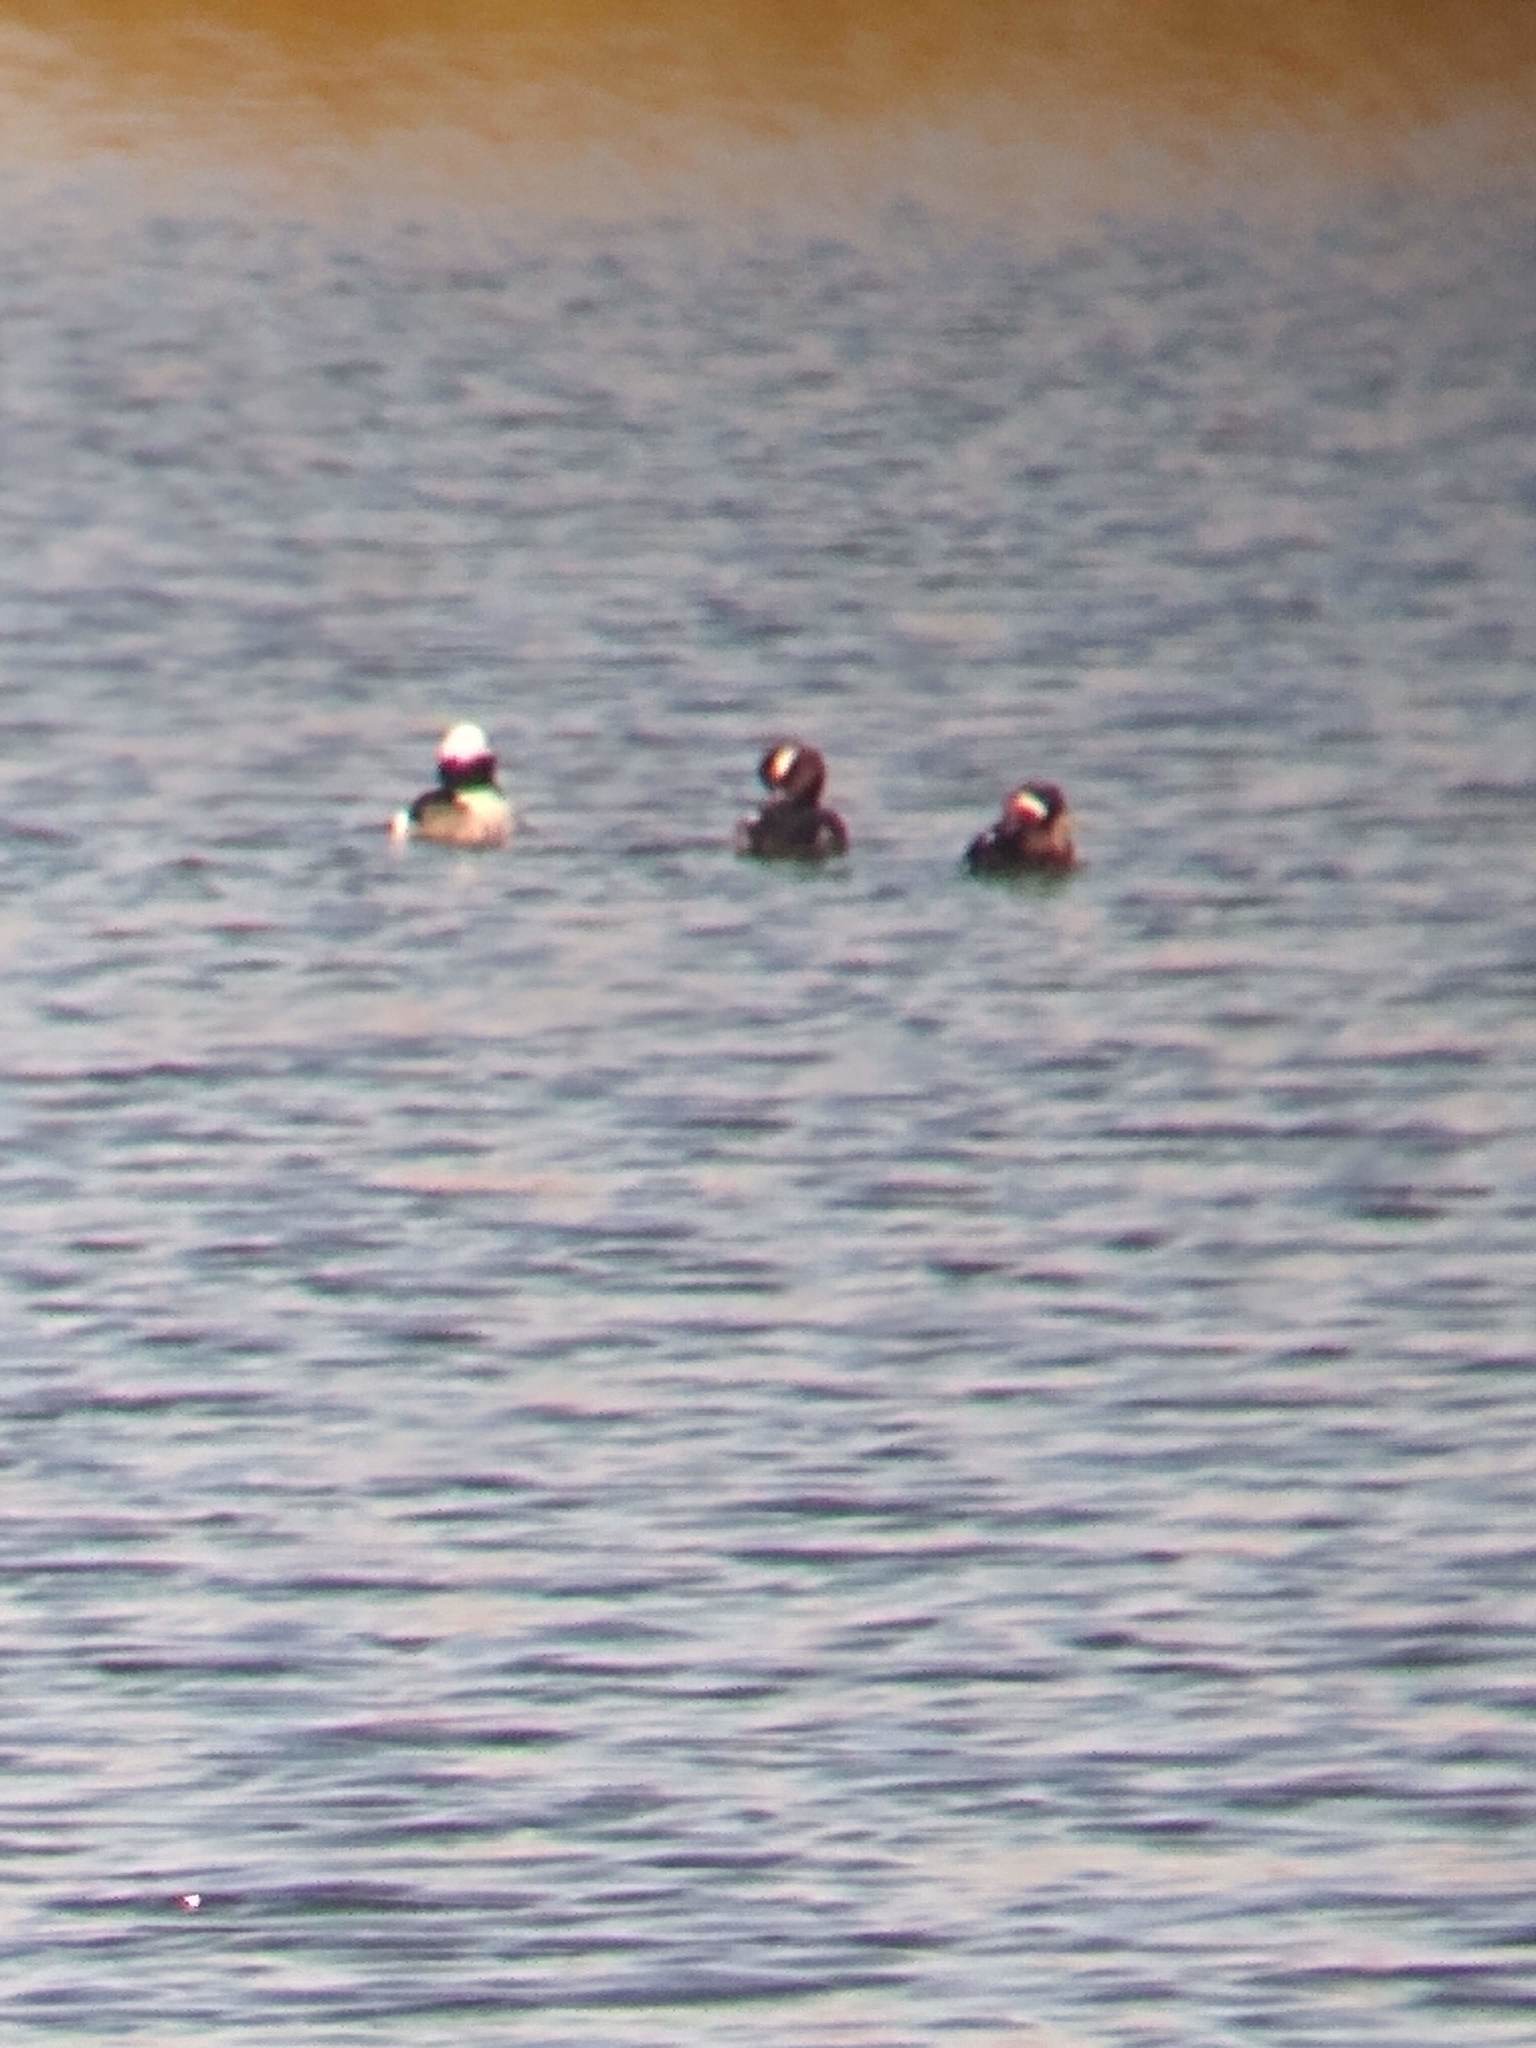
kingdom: Animalia
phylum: Chordata
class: Aves
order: Anseriformes
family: Anatidae
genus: Bucephala
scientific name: Bucephala albeola
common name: Bufflehead
